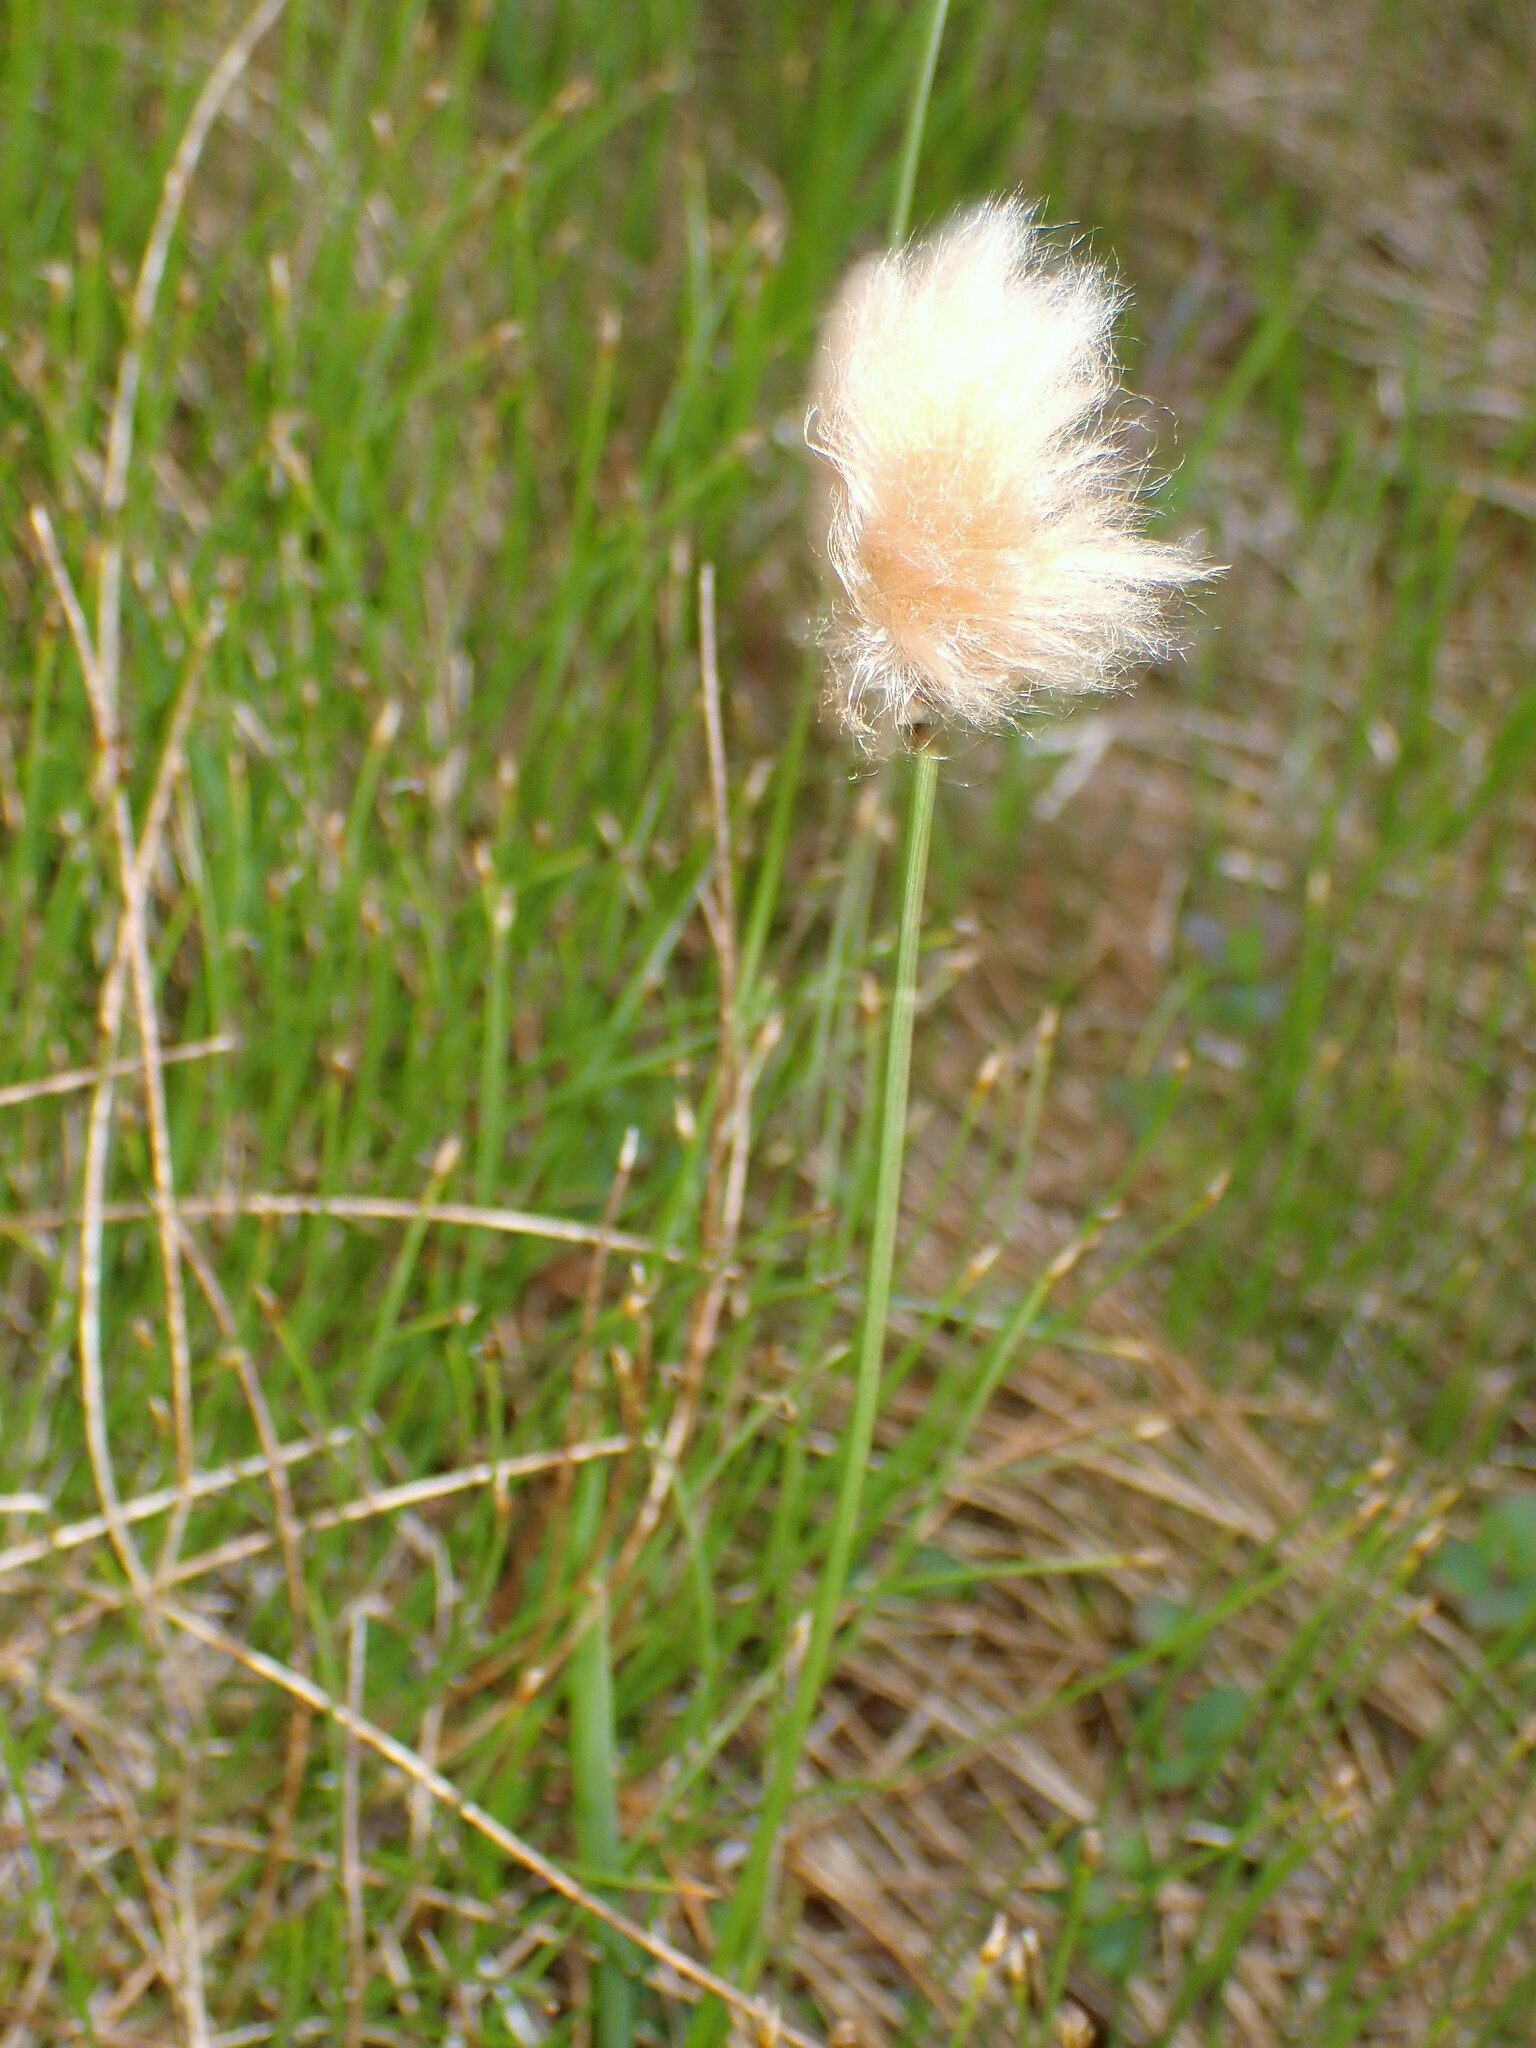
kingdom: Plantae
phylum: Tracheophyta
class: Liliopsida
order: Poales
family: Cyperaceae
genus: Eriophorum
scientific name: Eriophorum chamissonis
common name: Chamisso's cottongrass
